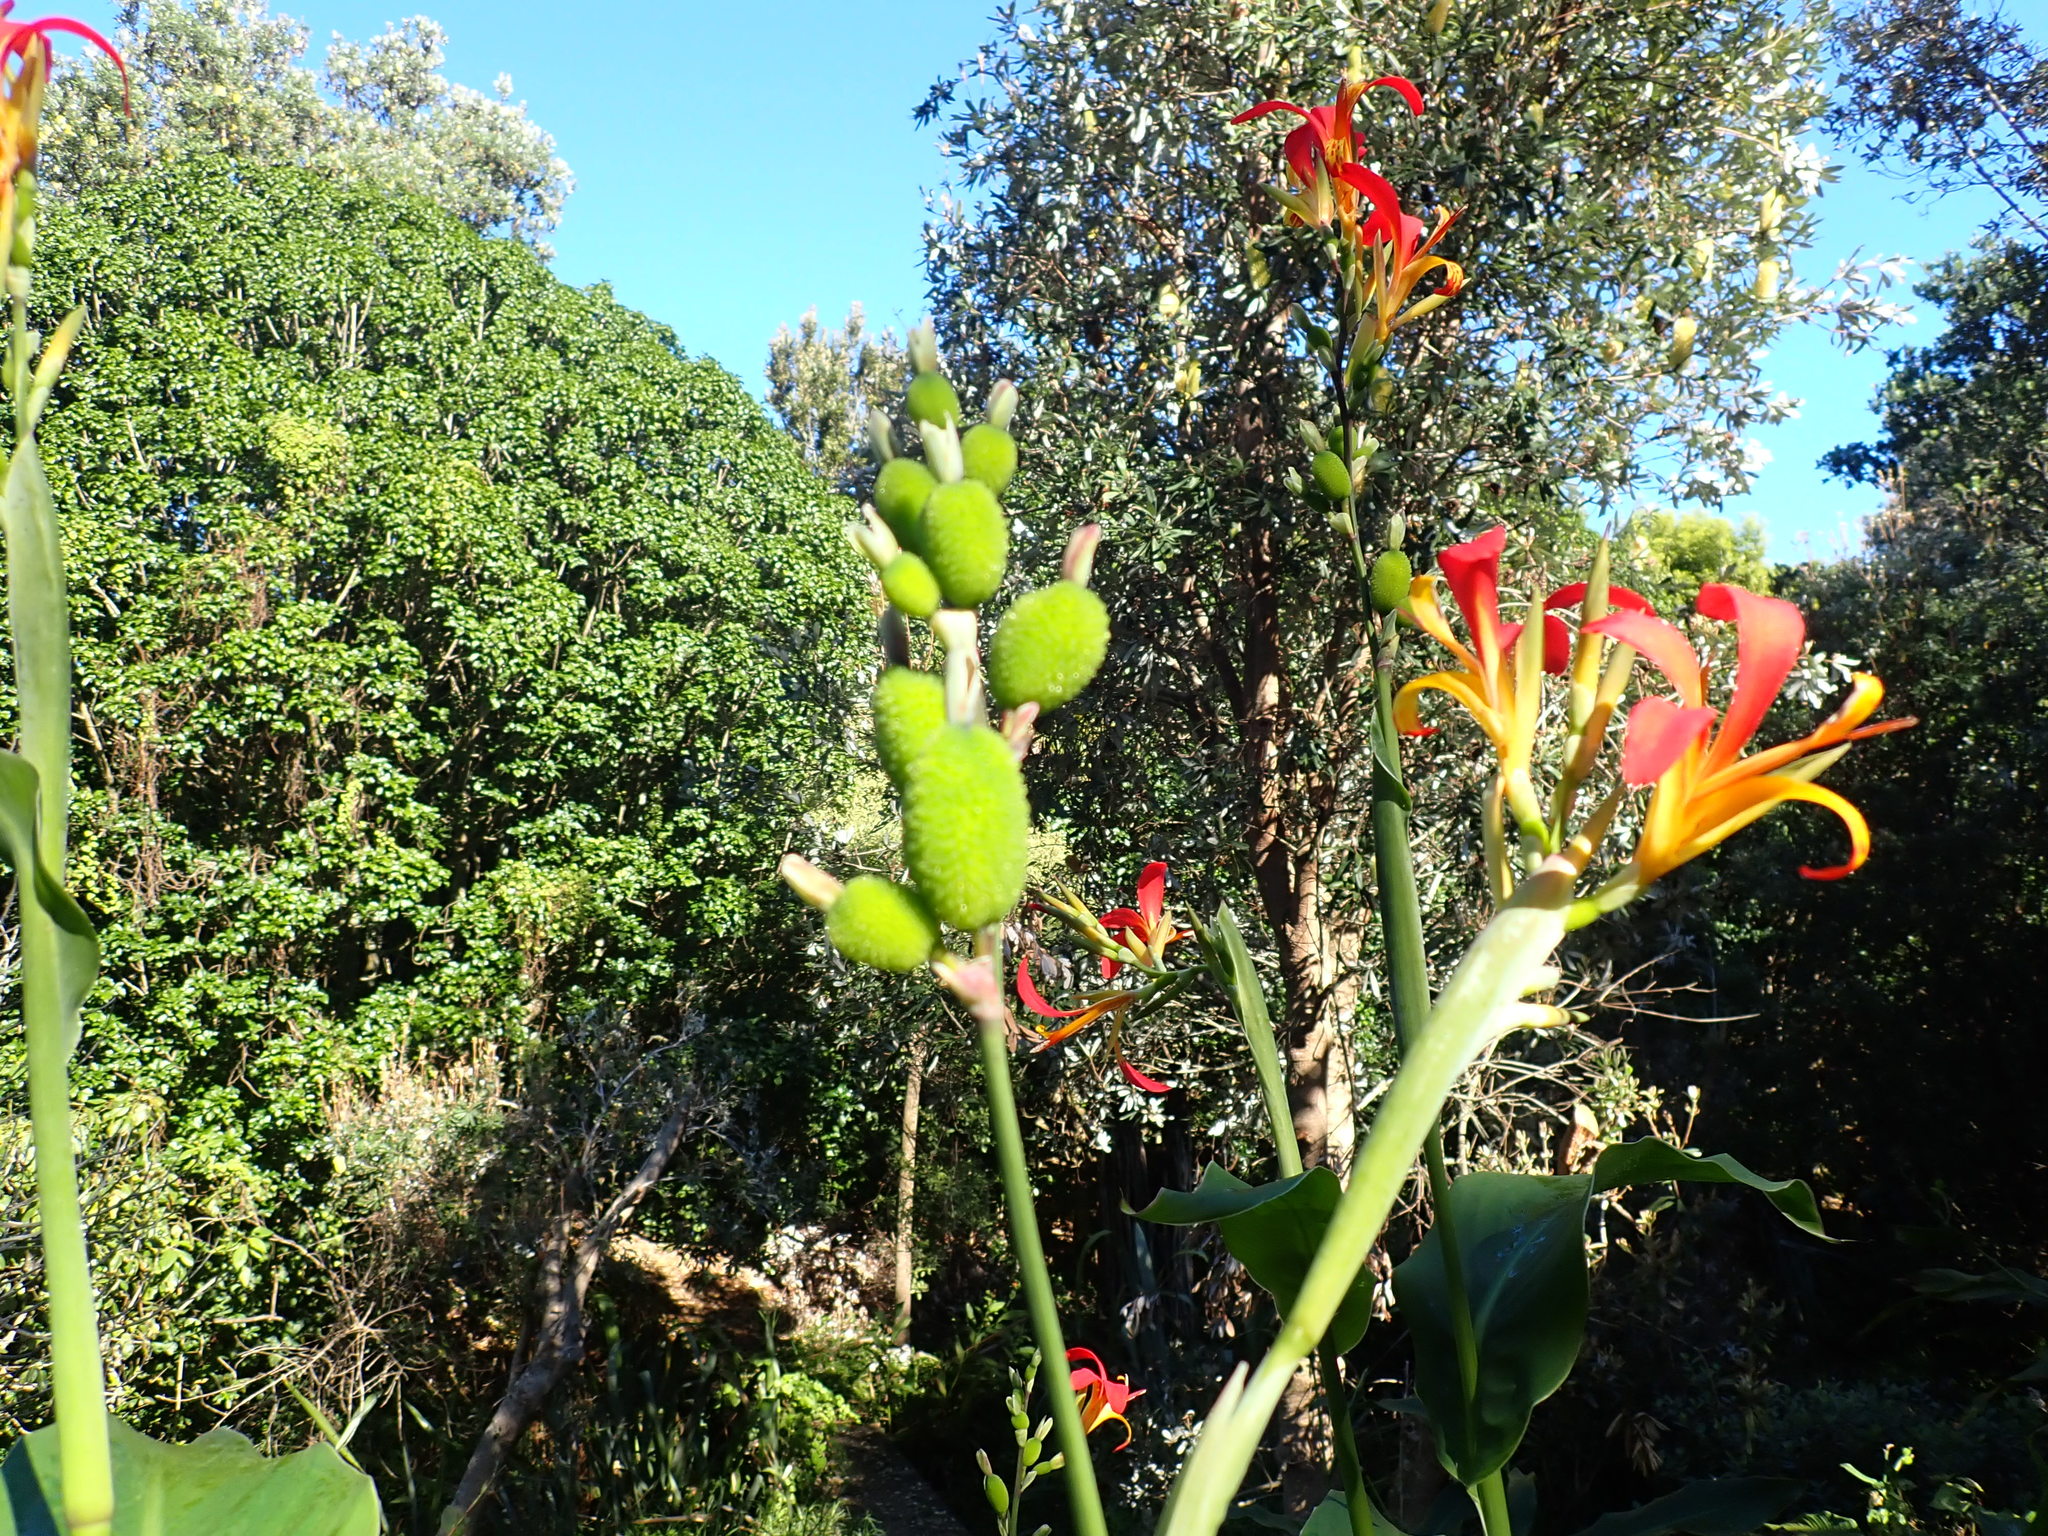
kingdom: Plantae
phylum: Tracheophyta
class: Liliopsida
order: Zingiberales
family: Cannaceae
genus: Canna
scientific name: Canna indica
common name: Indian shot
